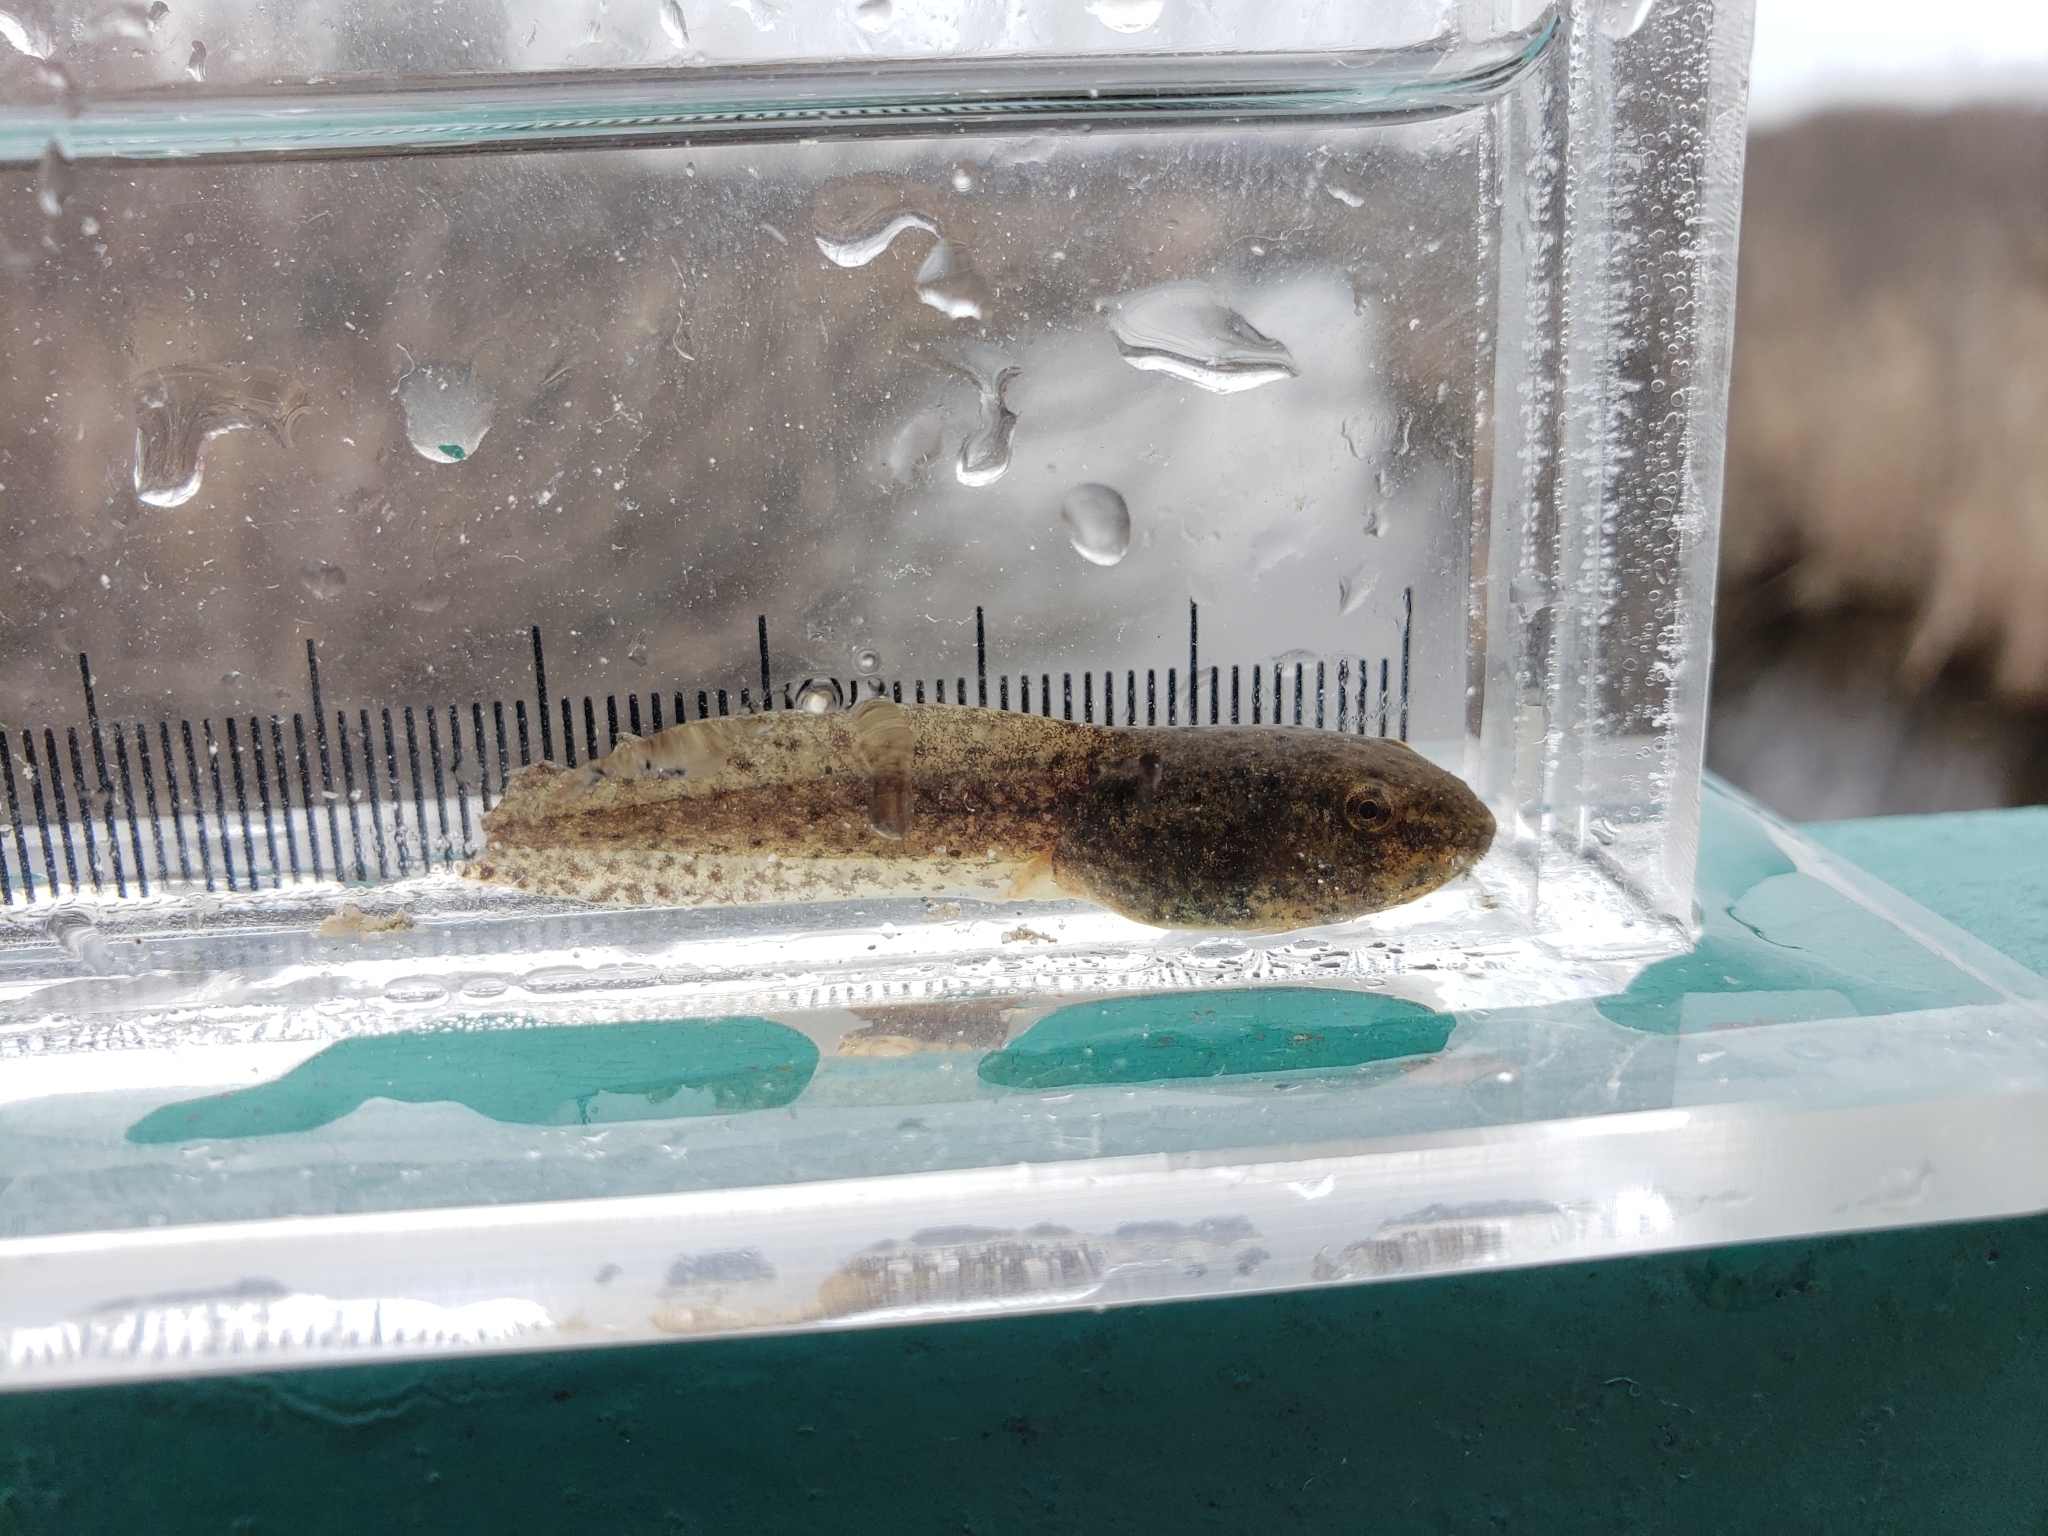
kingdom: Animalia
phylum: Chordata
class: Amphibia
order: Anura
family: Ranidae
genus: Lithobates
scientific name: Lithobates clamitans
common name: Green frog
